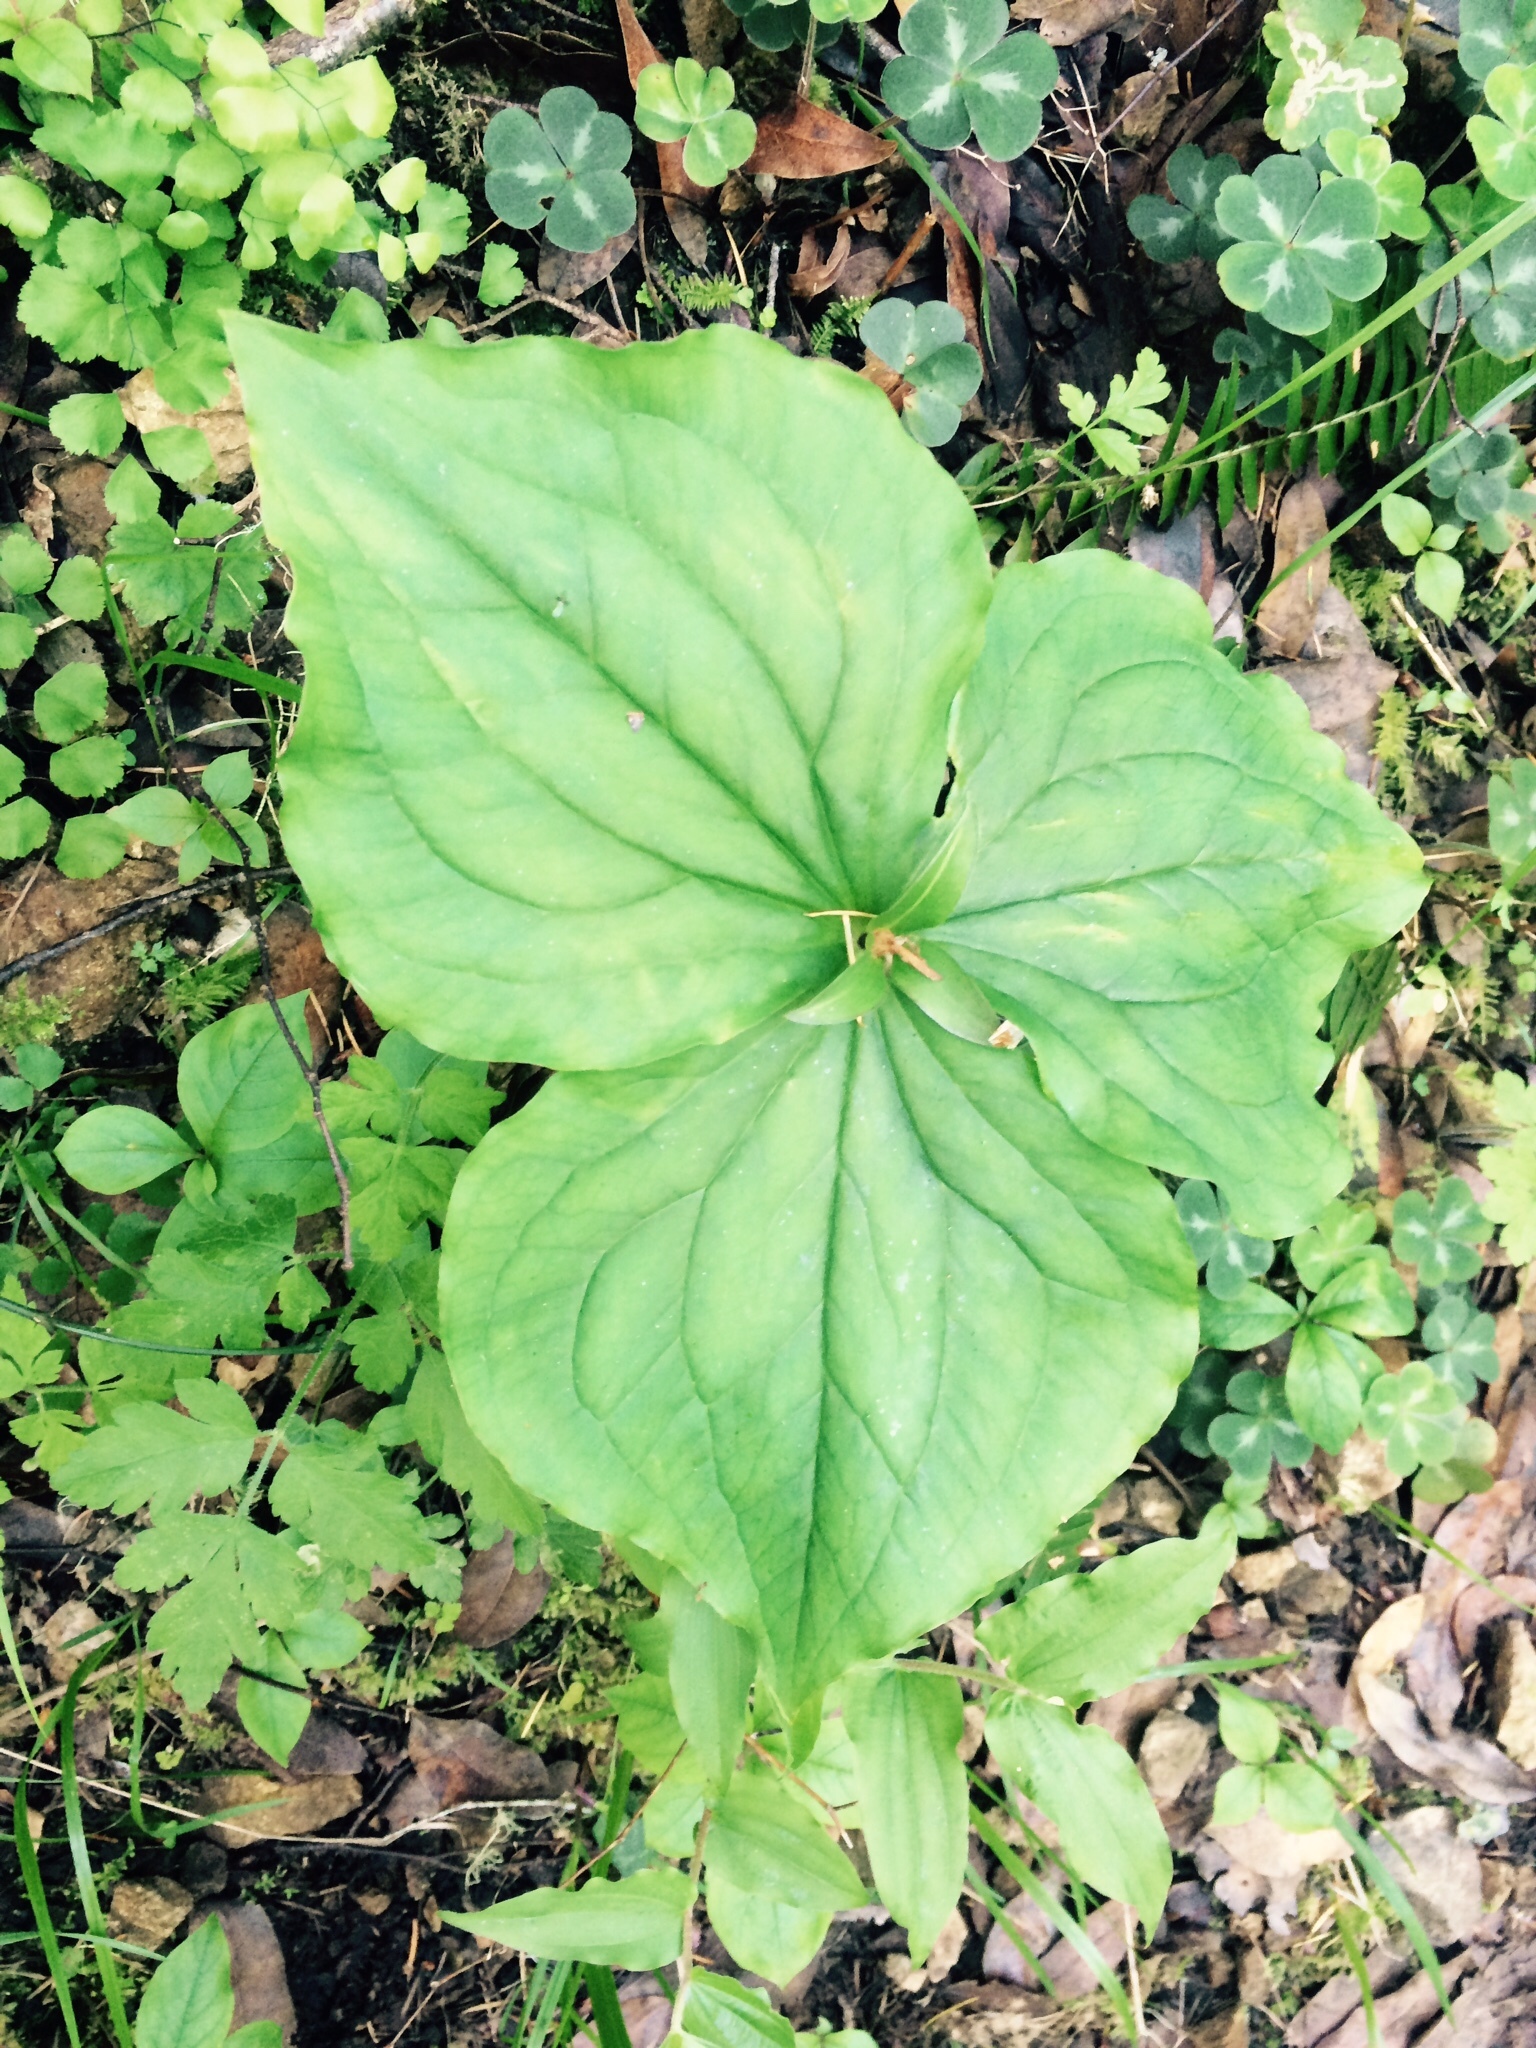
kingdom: Plantae
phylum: Tracheophyta
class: Liliopsida
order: Liliales
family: Melanthiaceae
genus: Trillium
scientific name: Trillium ovatum
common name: Pacific trillium
